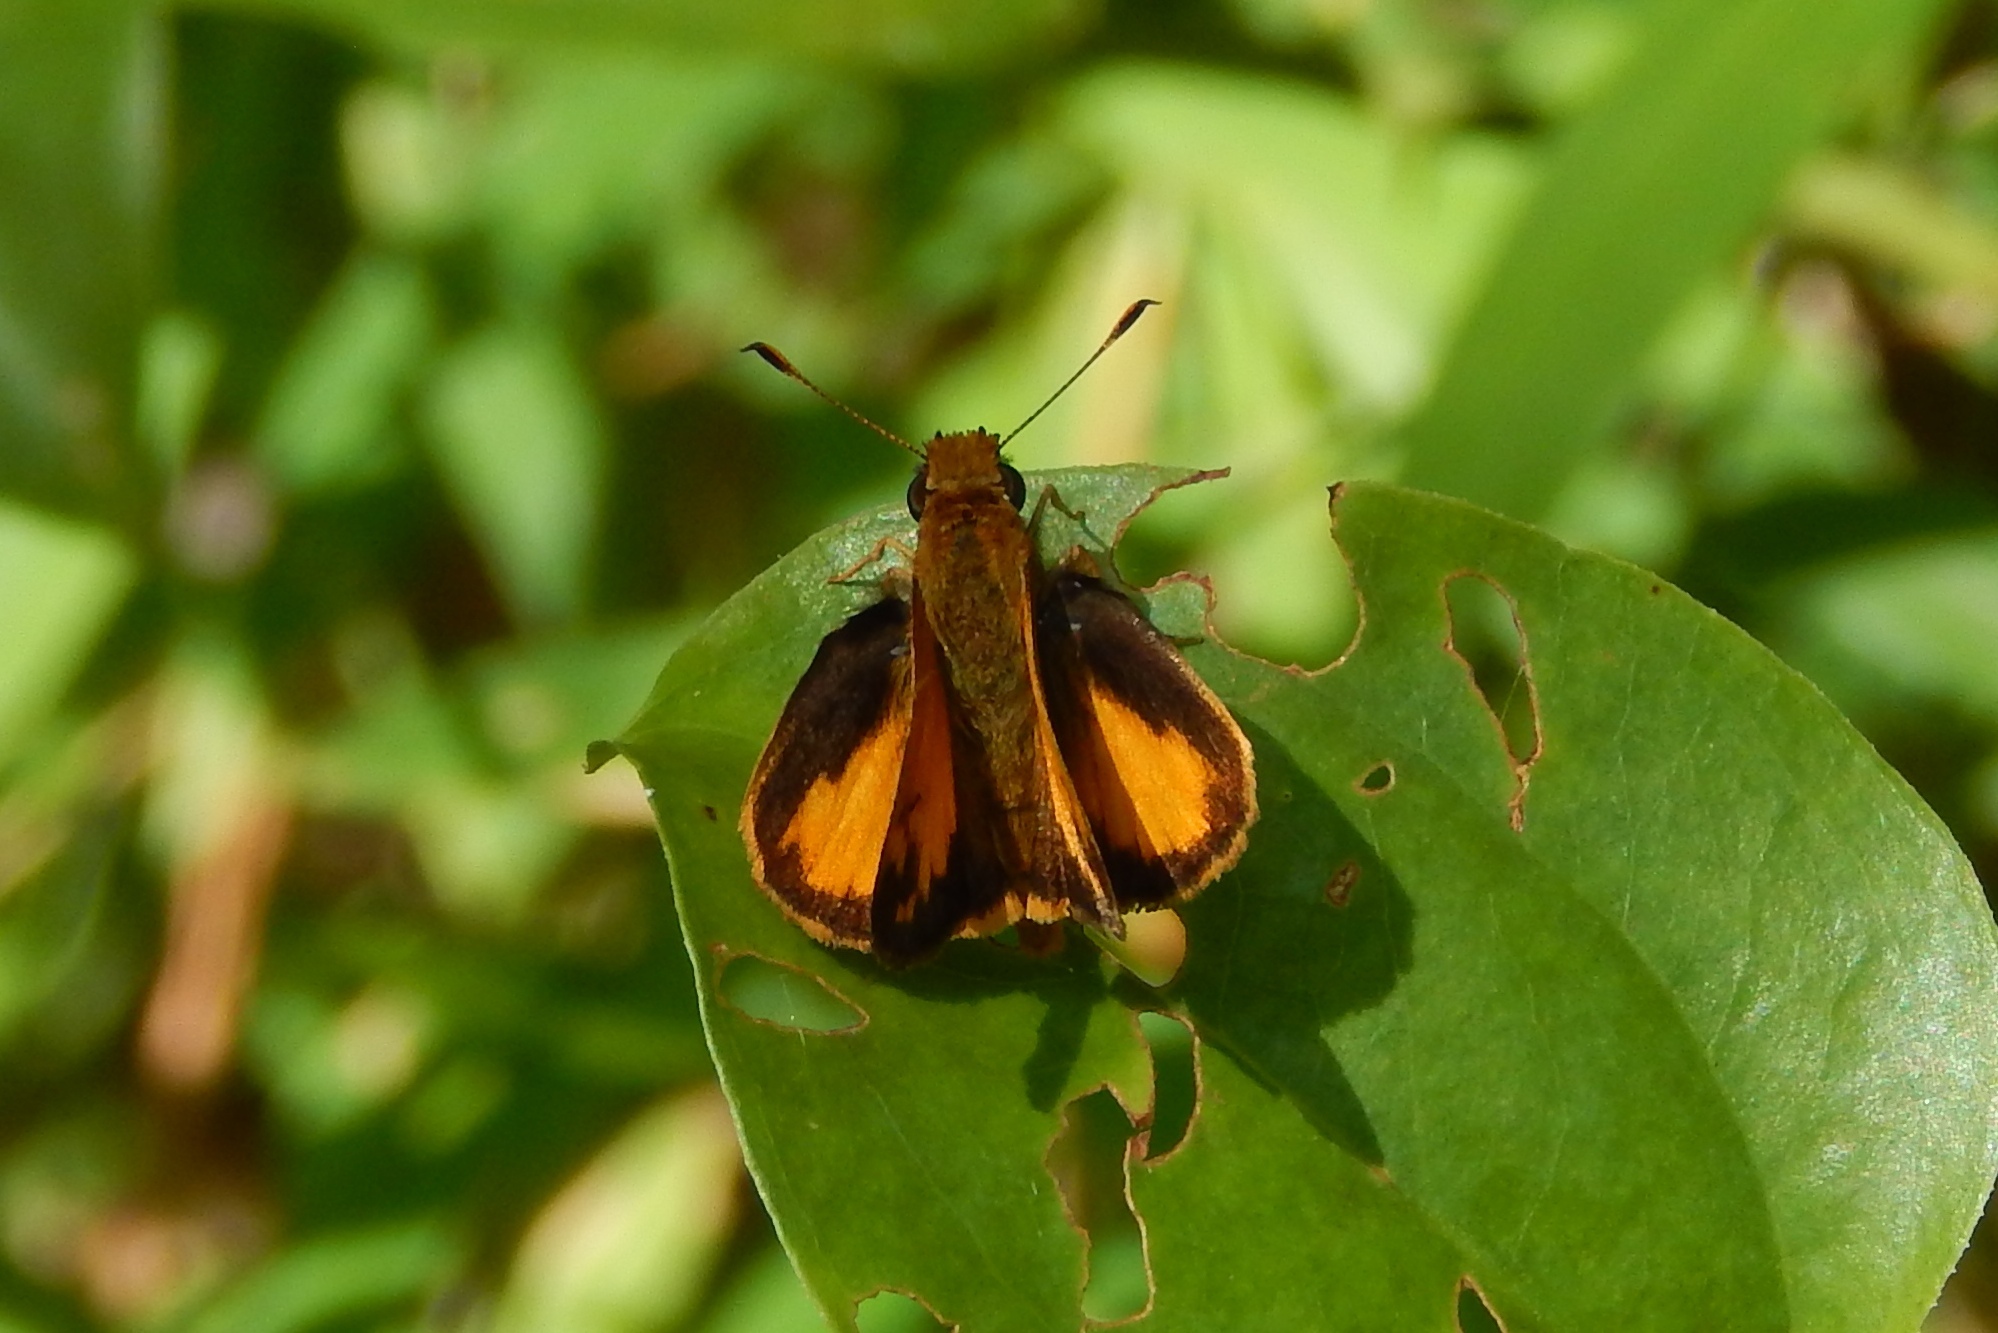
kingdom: Animalia
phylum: Arthropoda
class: Insecta
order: Lepidoptera
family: Hesperiidae
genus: Lon
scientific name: Lon zabulon
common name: Zabulon skipper
